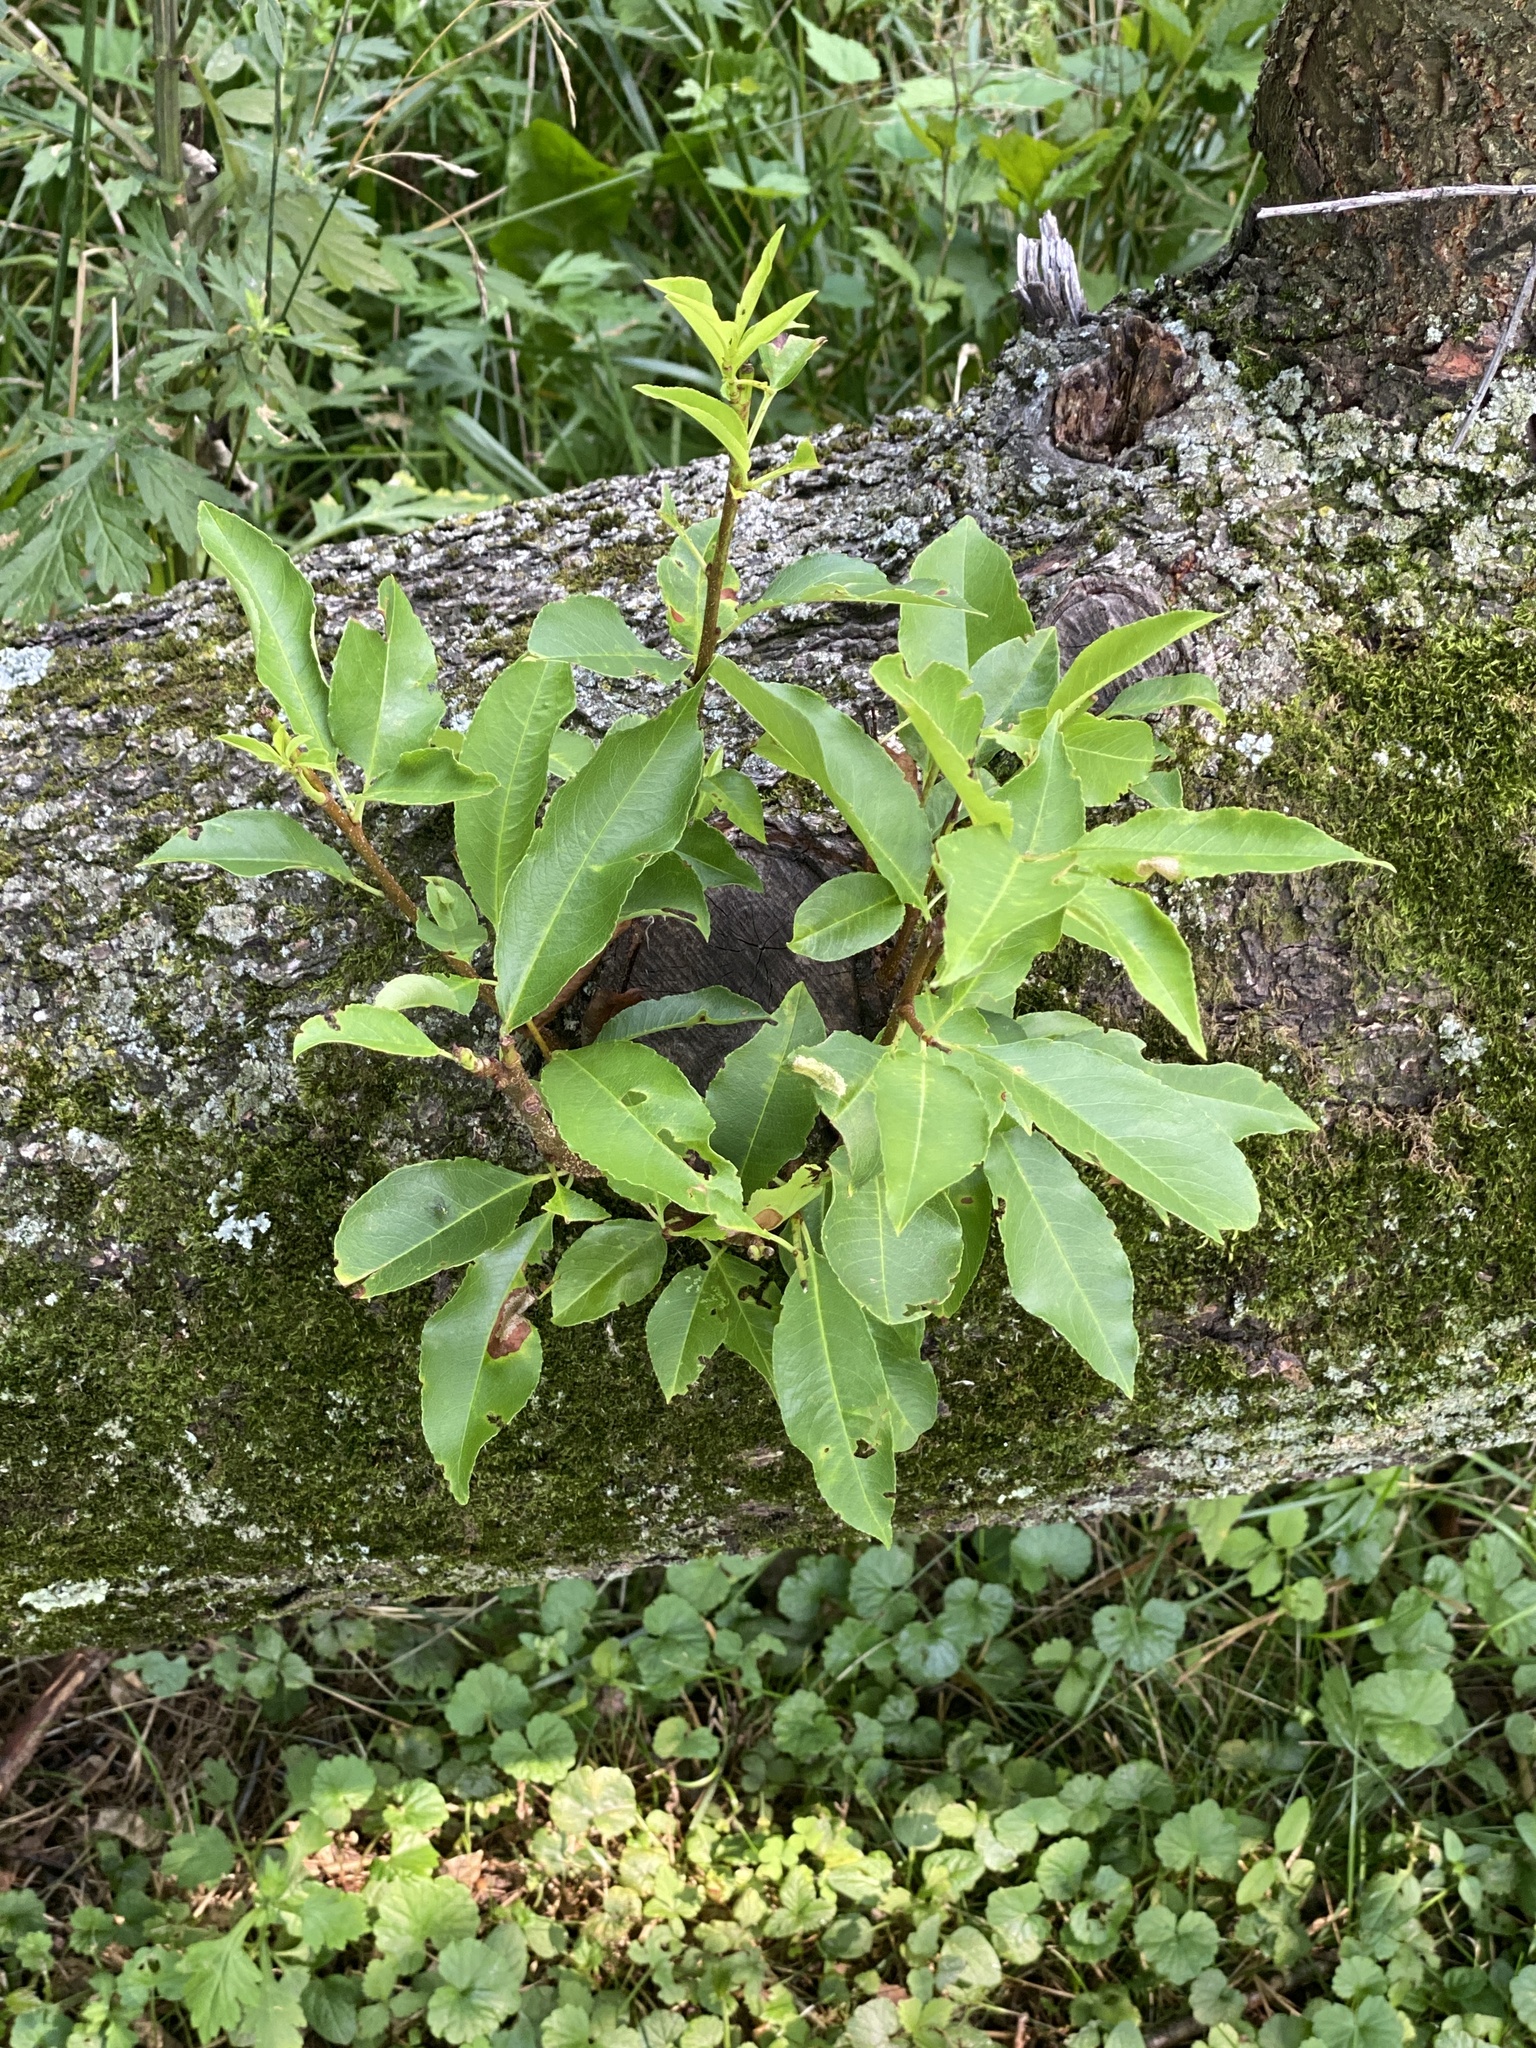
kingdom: Plantae
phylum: Tracheophyta
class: Magnoliopsida
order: Rosales
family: Rosaceae
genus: Prunus
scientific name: Prunus serotina
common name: Black cherry
